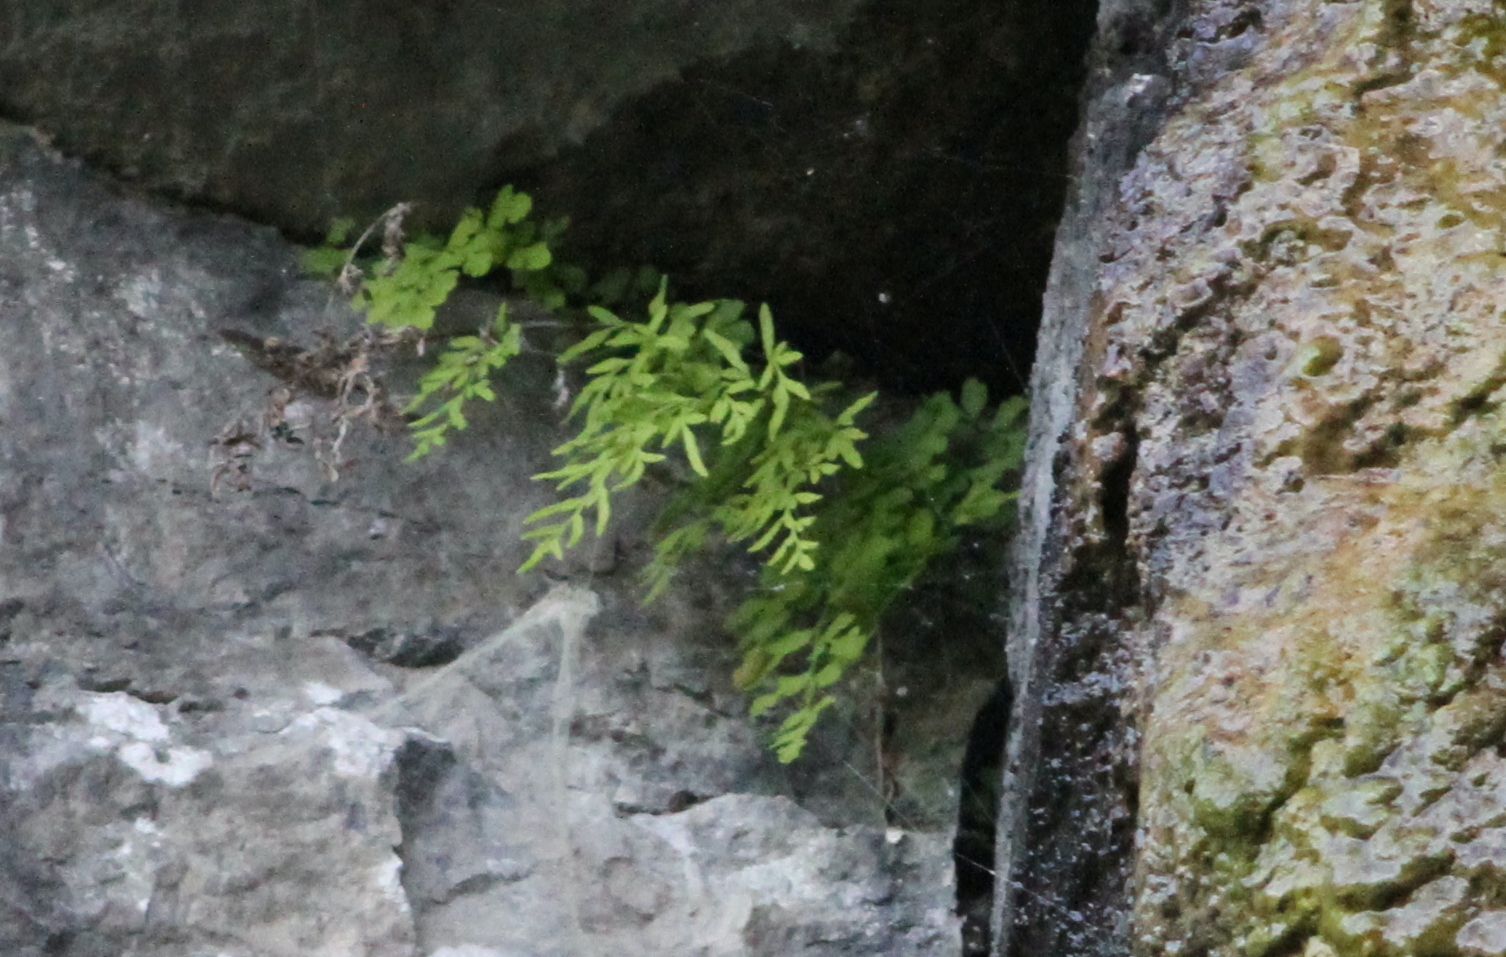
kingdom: Plantae
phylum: Tracheophyta
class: Polypodiopsida
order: Polypodiales
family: Pteridaceae
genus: Cryptogramma
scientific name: Cryptogramma stelleri
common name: Cliff-brake
